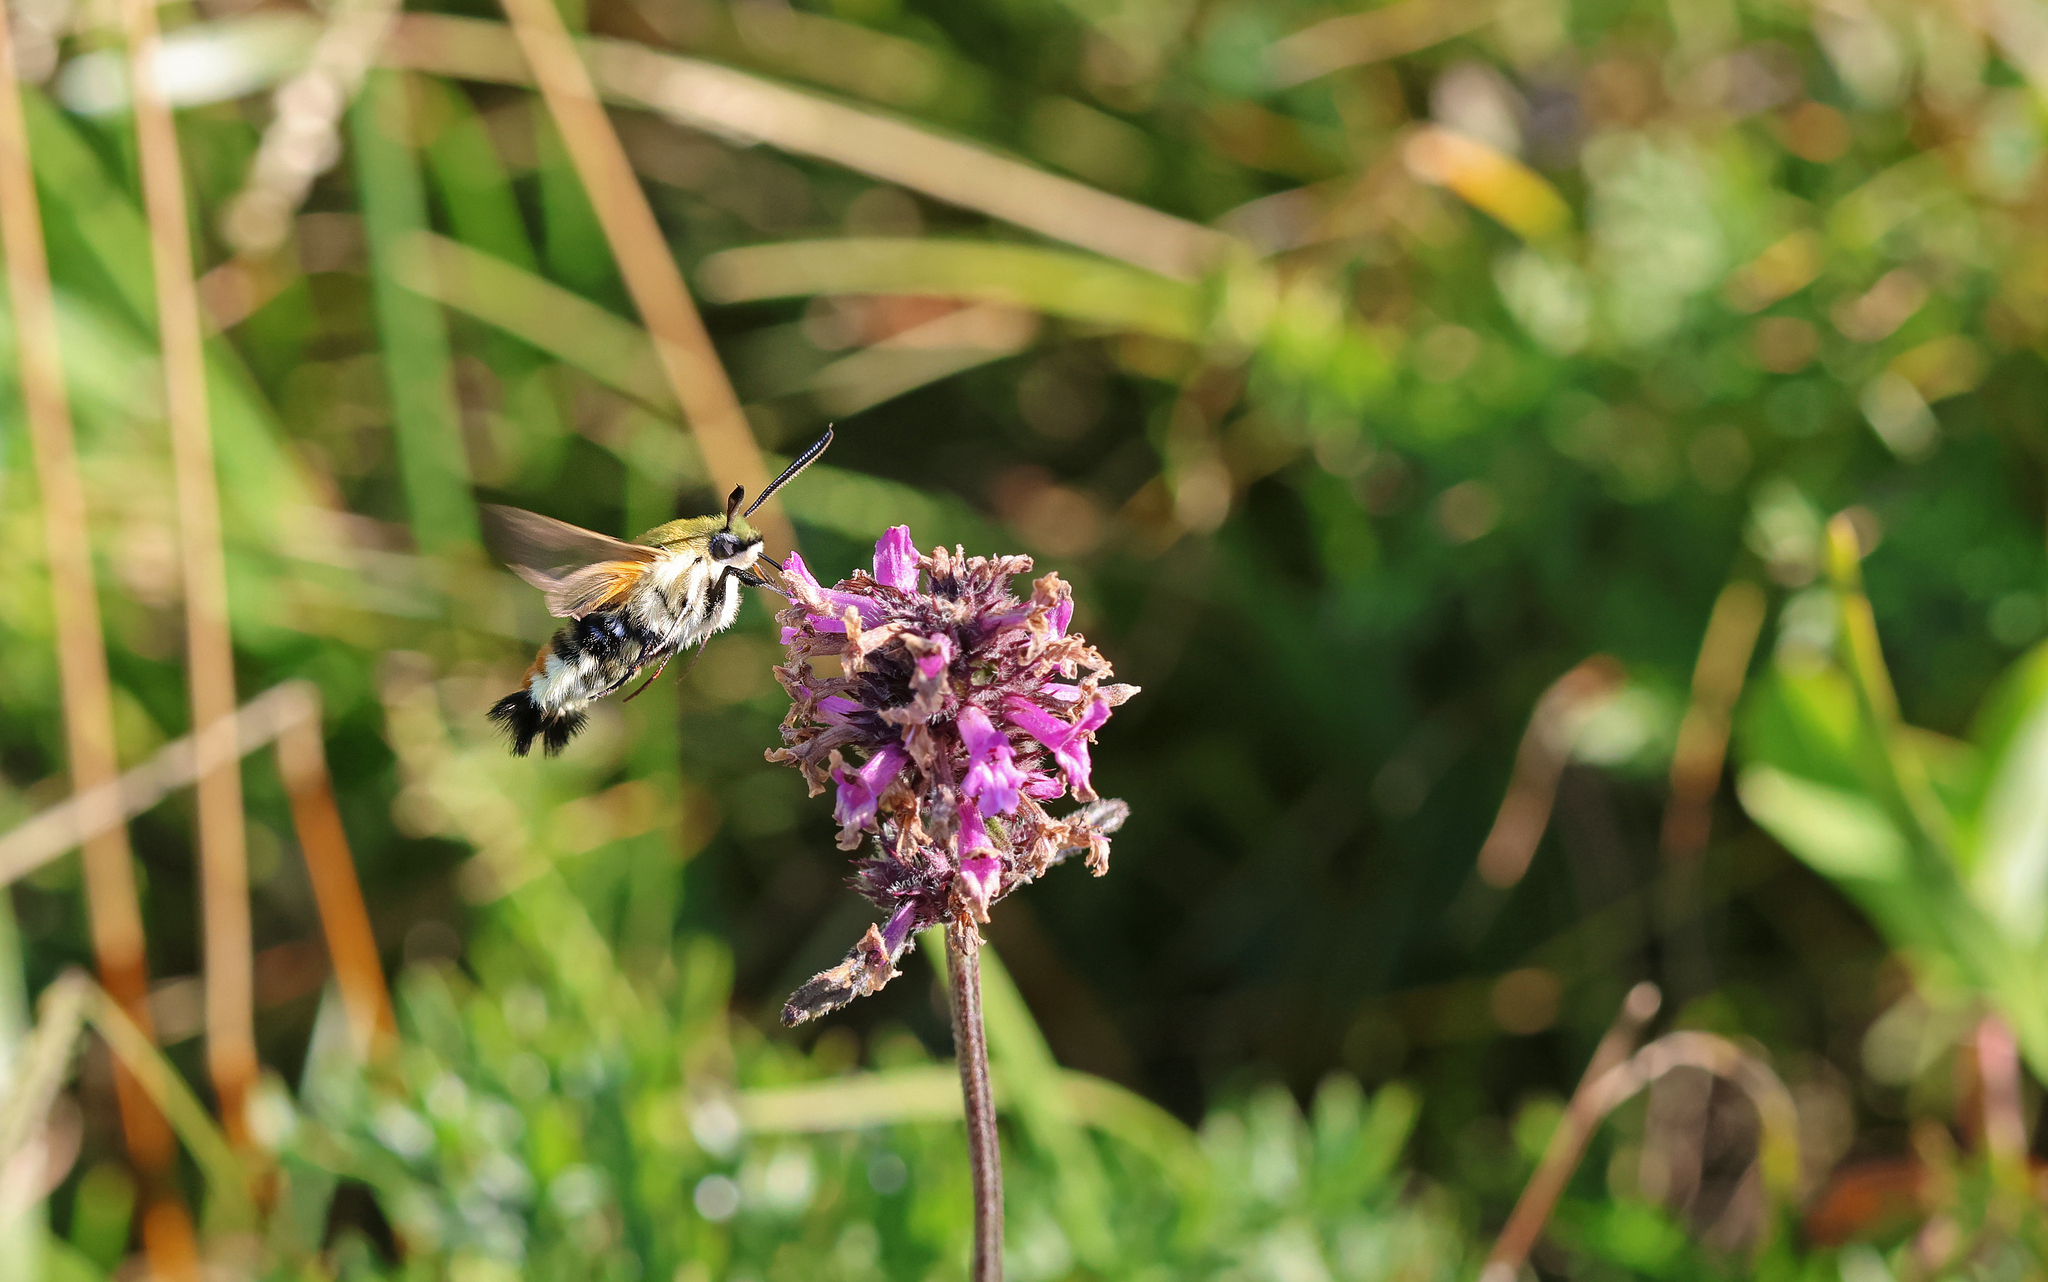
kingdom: Animalia
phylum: Arthropoda
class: Insecta
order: Lepidoptera
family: Sphingidae
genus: Hemaris
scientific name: Hemaris tityus
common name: Narrow-bordered bee hawk-moth
